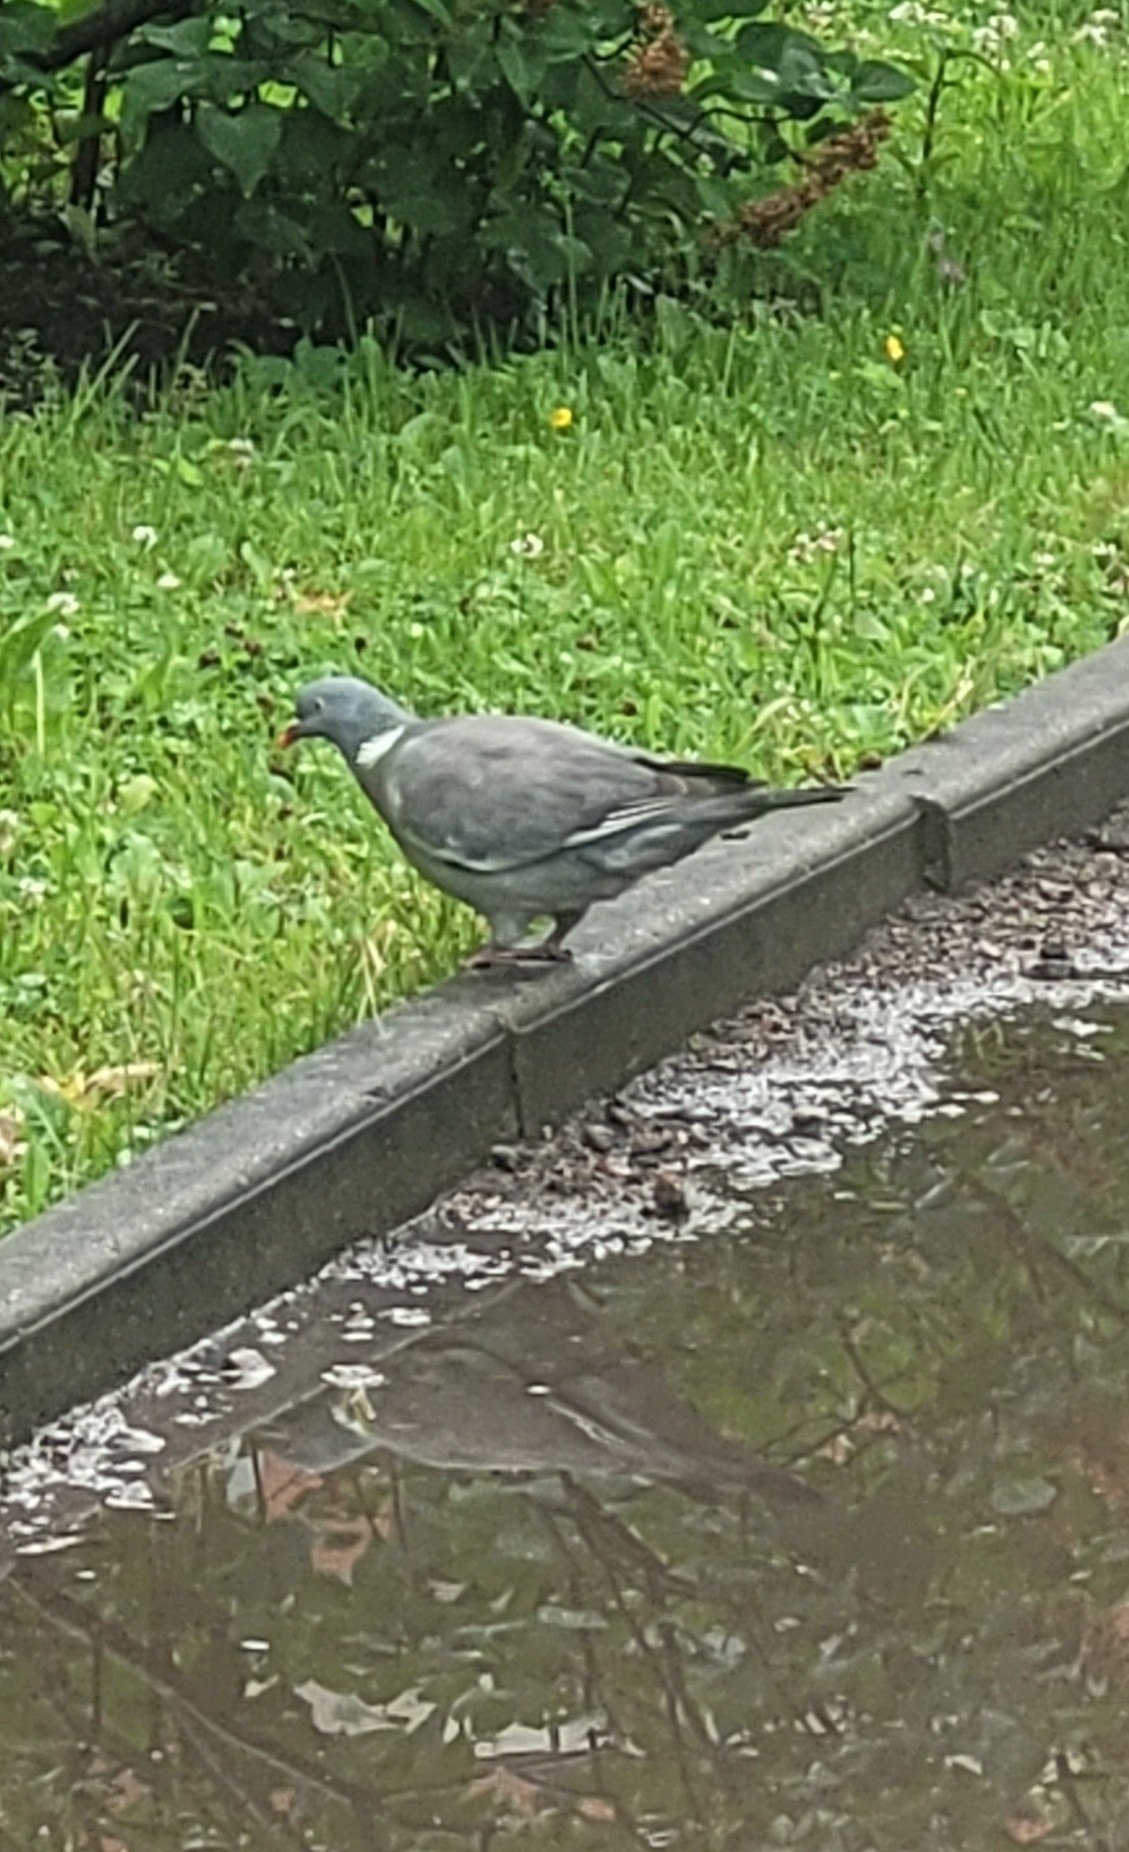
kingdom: Animalia
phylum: Chordata
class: Aves
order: Columbiformes
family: Columbidae
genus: Columba
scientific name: Columba palumbus
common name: Common wood pigeon
